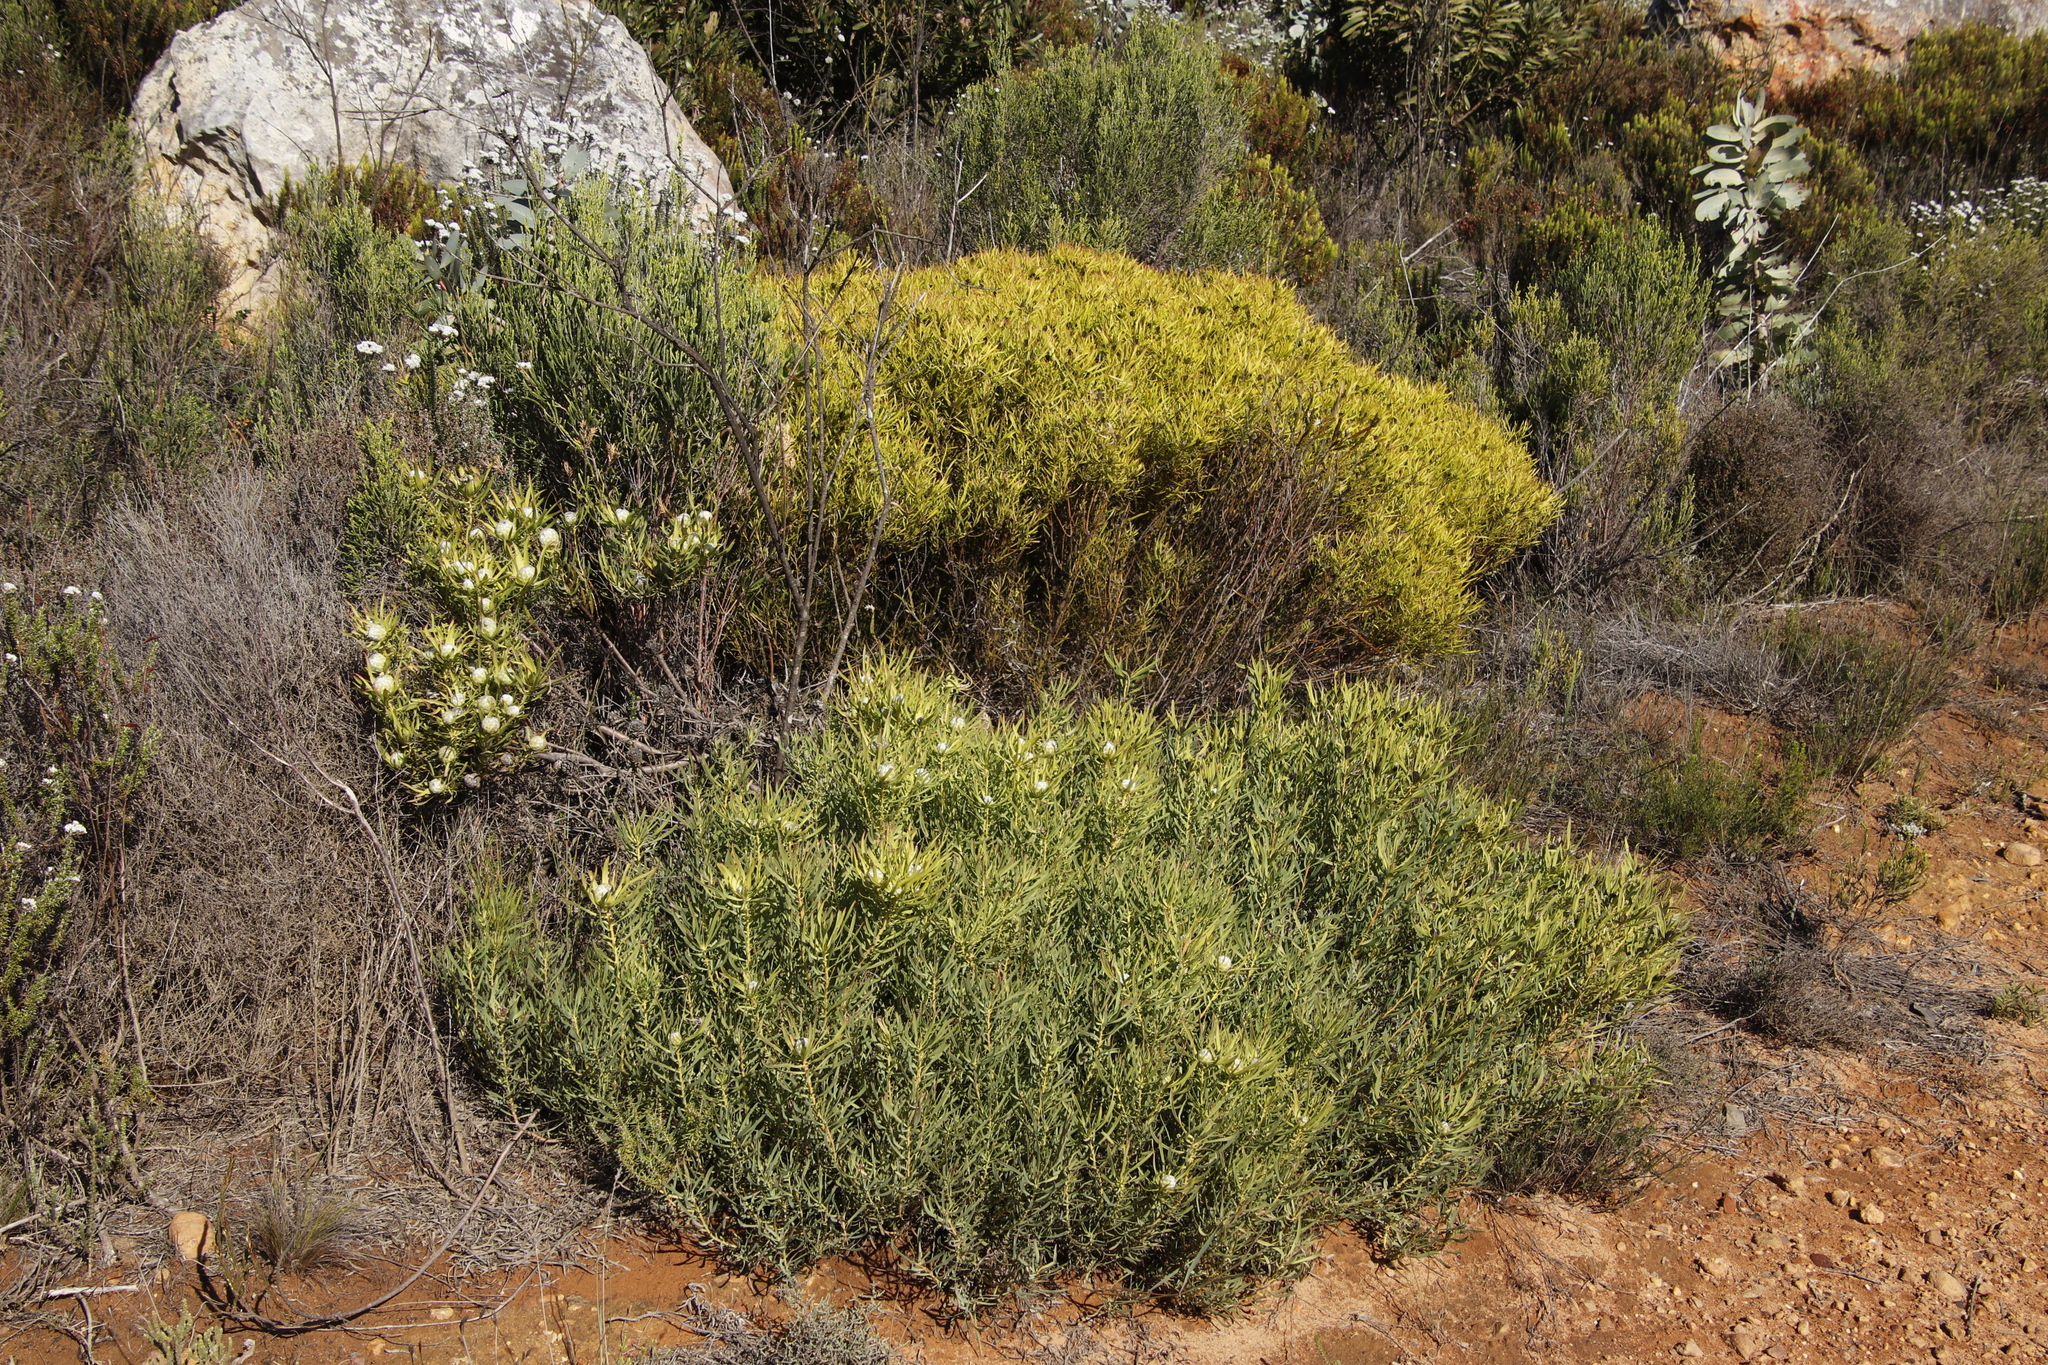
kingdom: Plantae
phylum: Tracheophyta
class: Magnoliopsida
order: Proteales
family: Proteaceae
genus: Leucadendron
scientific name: Leucadendron salignum
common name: Common sunshine conebush
